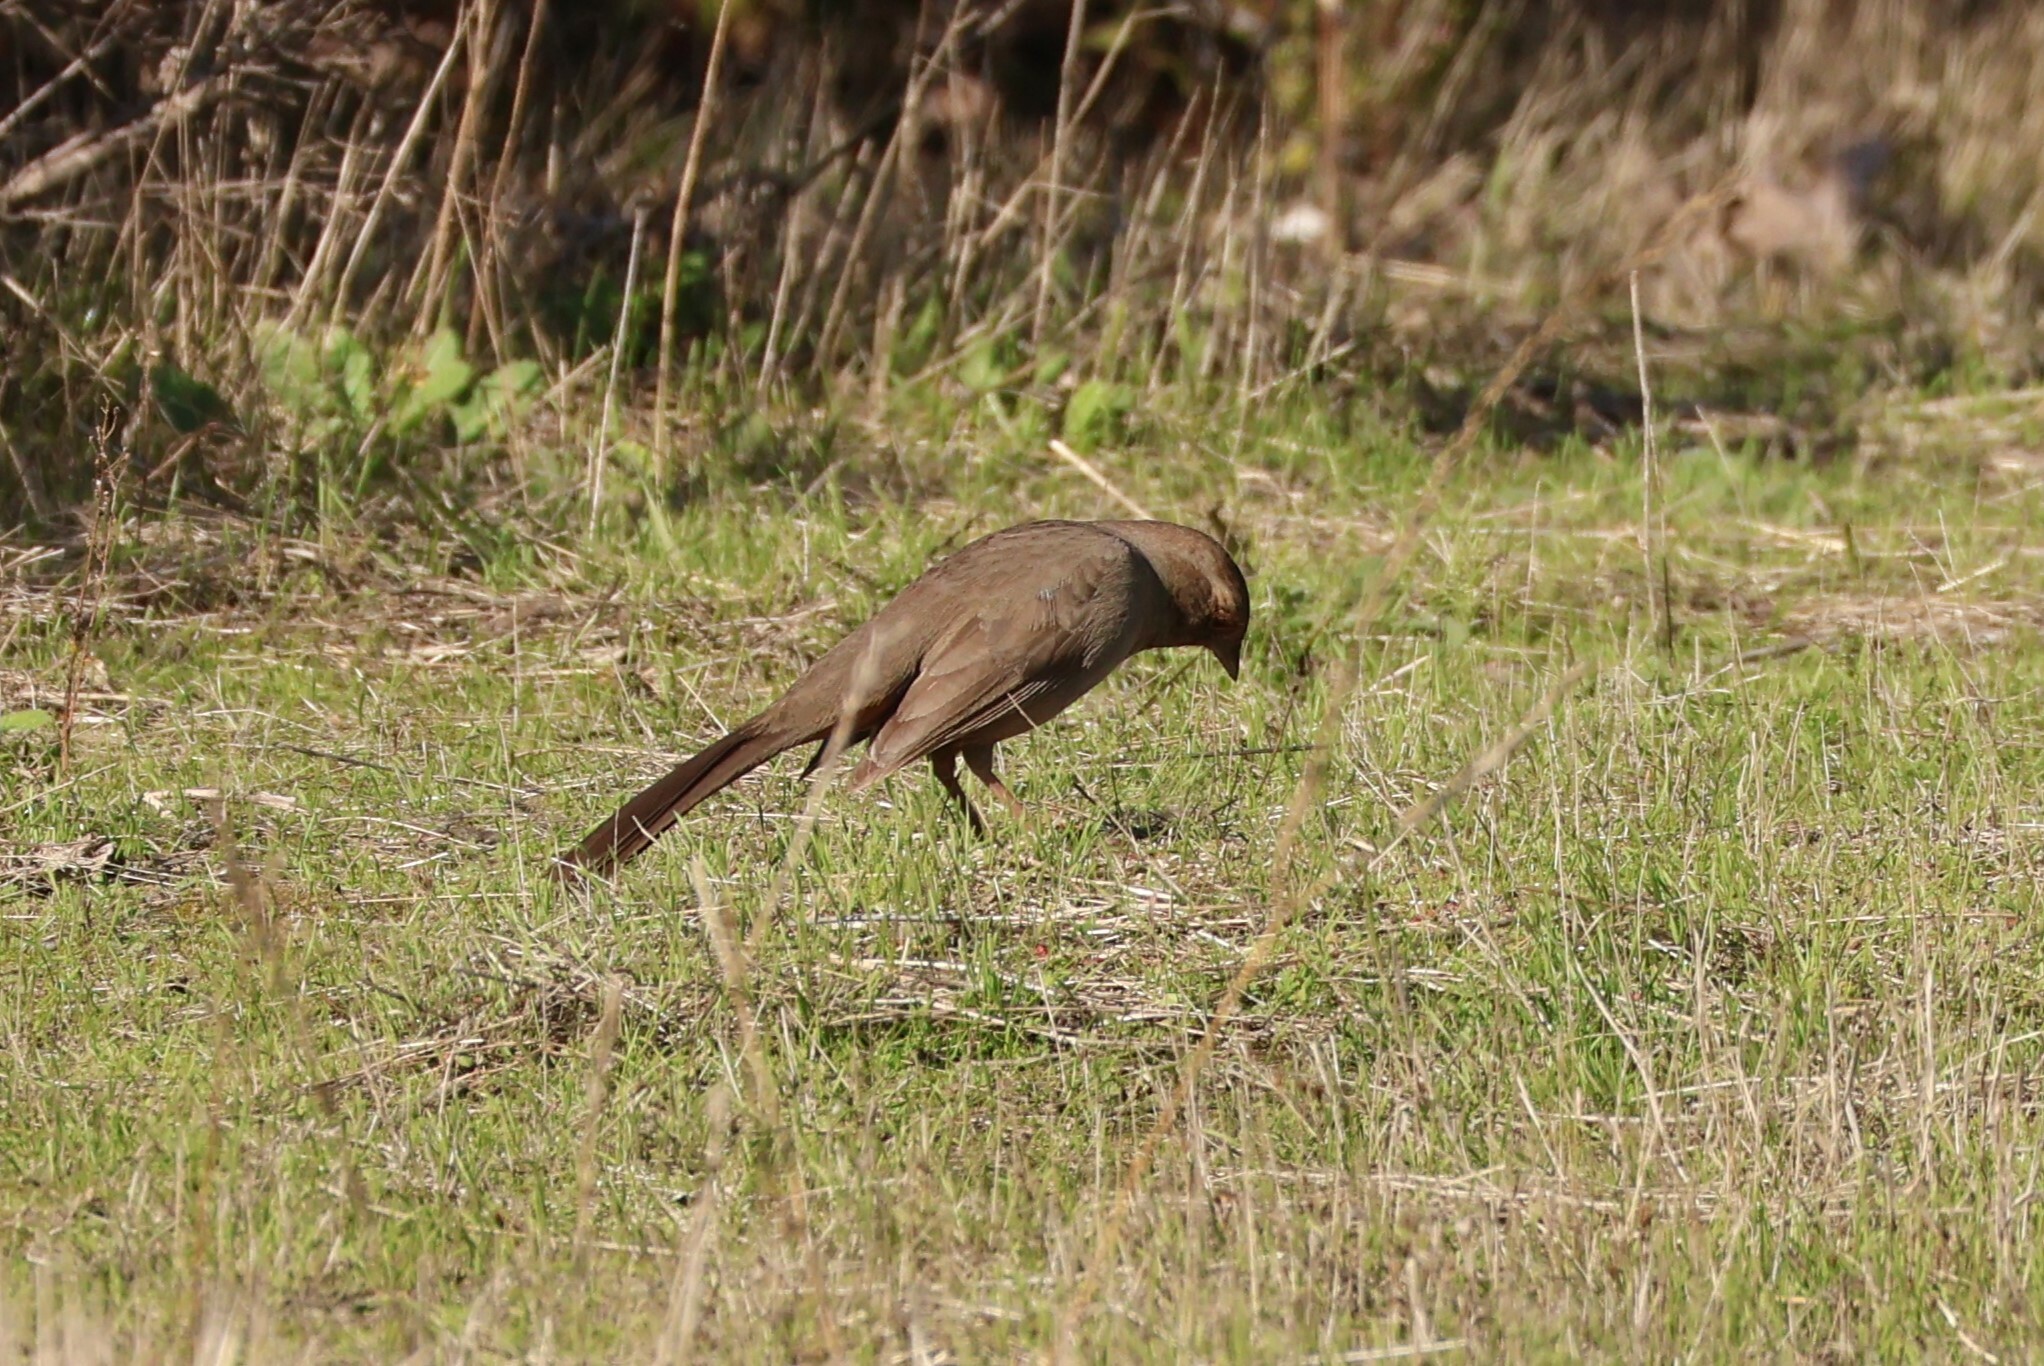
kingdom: Animalia
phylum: Chordata
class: Aves
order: Passeriformes
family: Passerellidae
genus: Melozone
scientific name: Melozone crissalis
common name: California towhee
